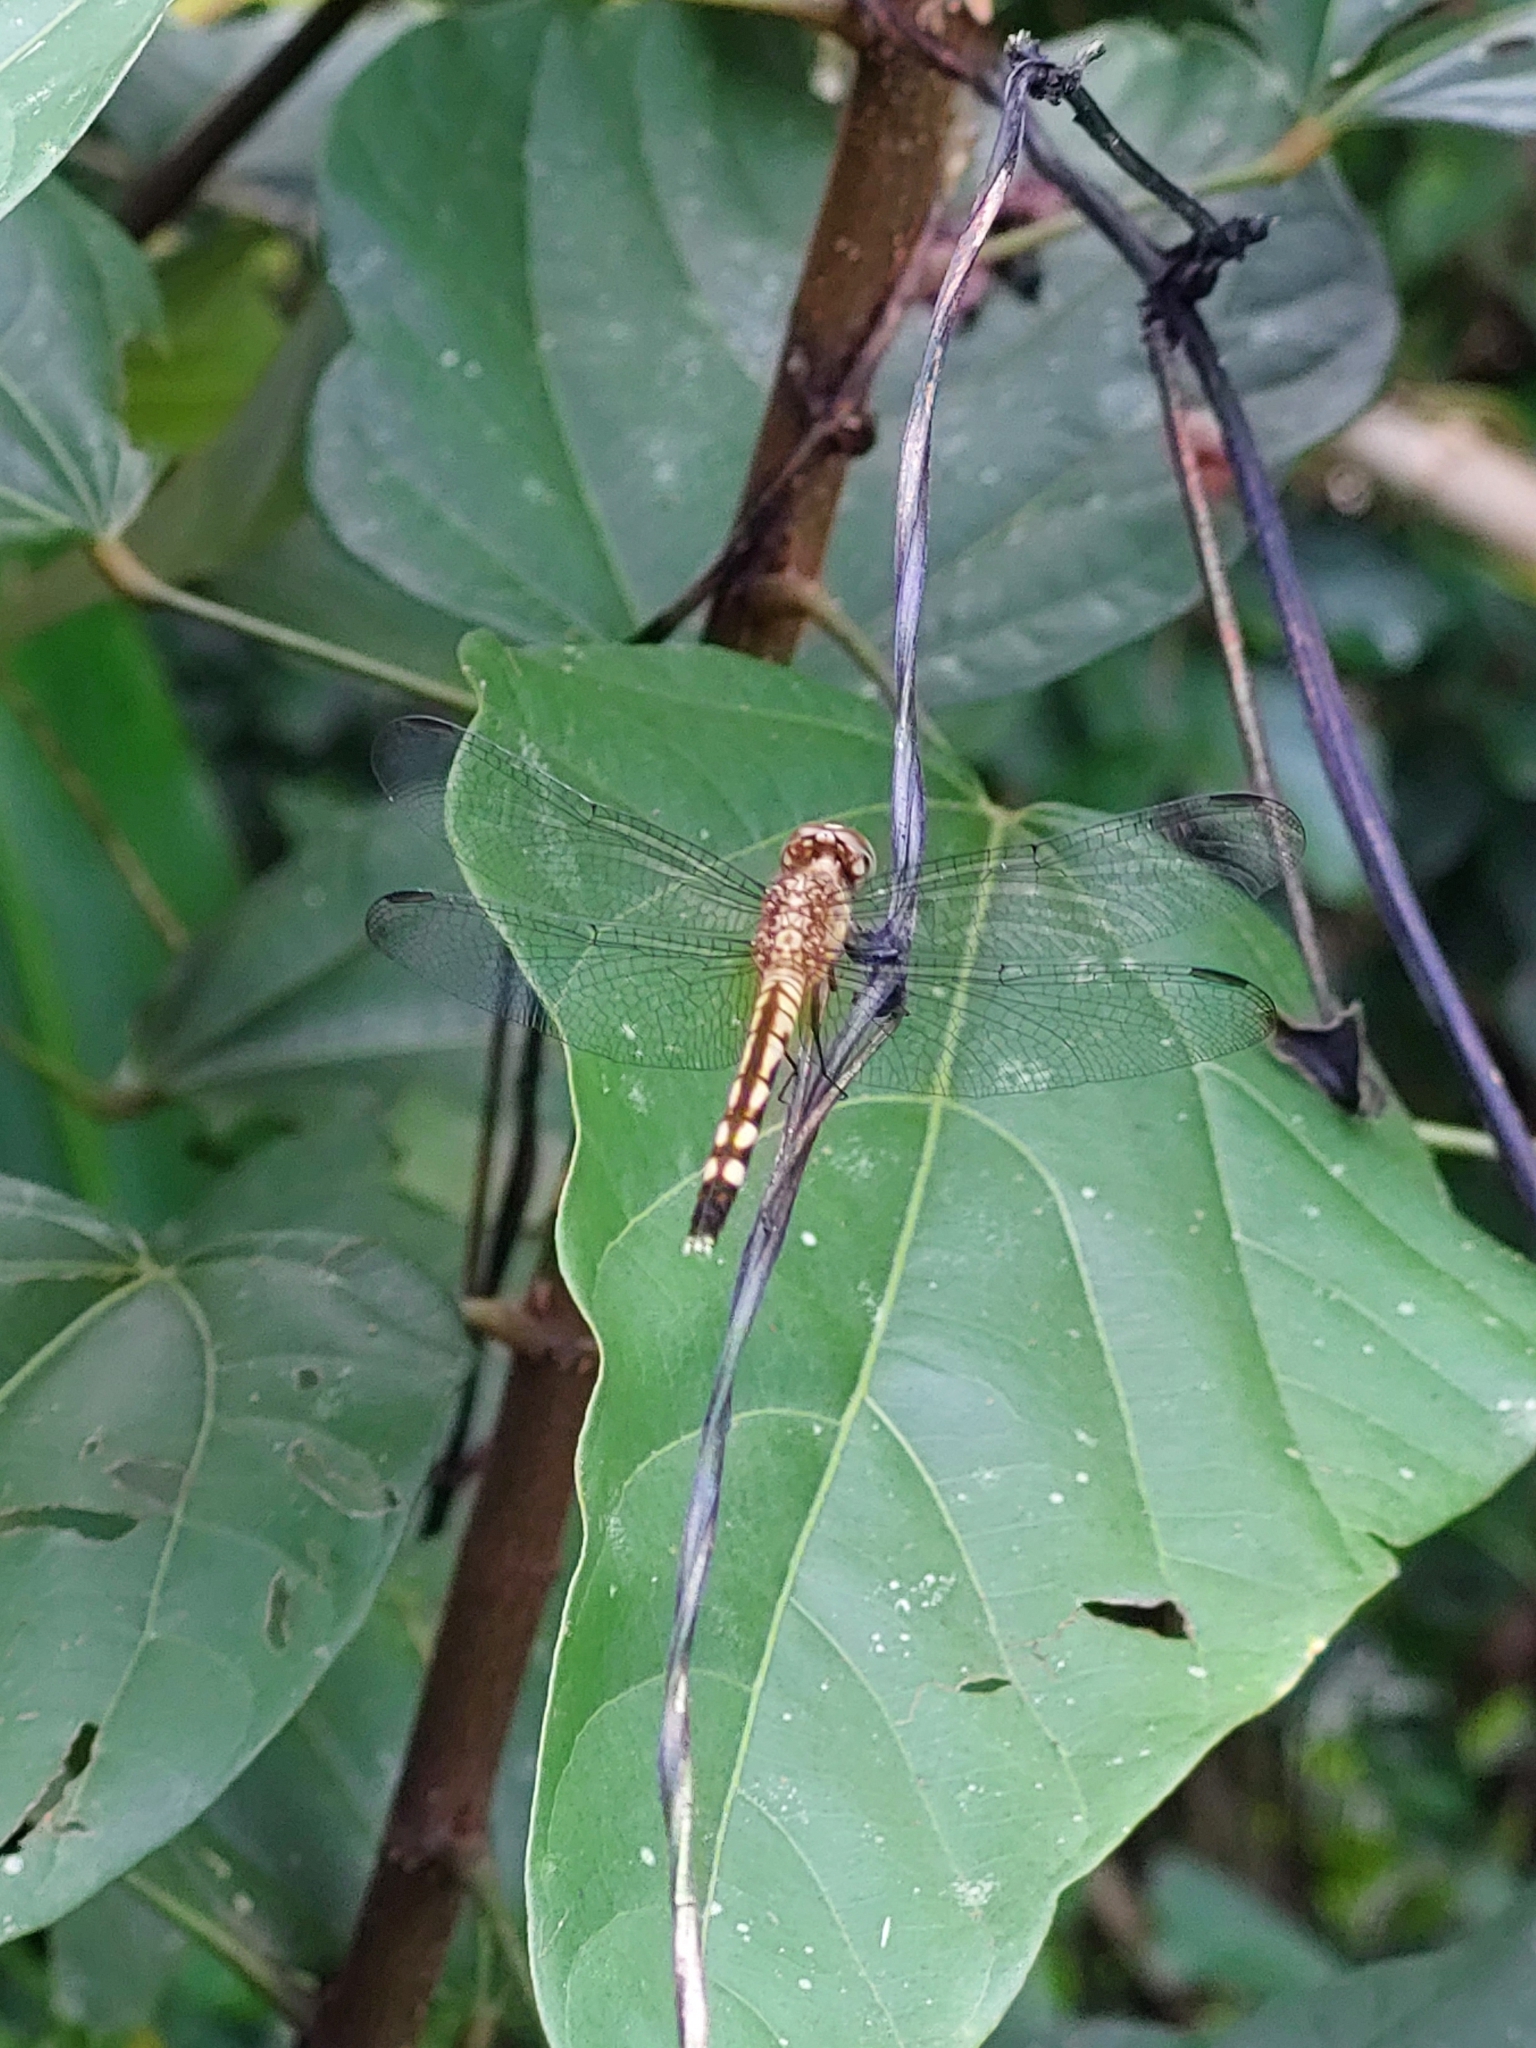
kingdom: Animalia
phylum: Arthropoda
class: Insecta
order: Odonata
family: Libellulidae
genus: Anatya
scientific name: Anatya guttata
